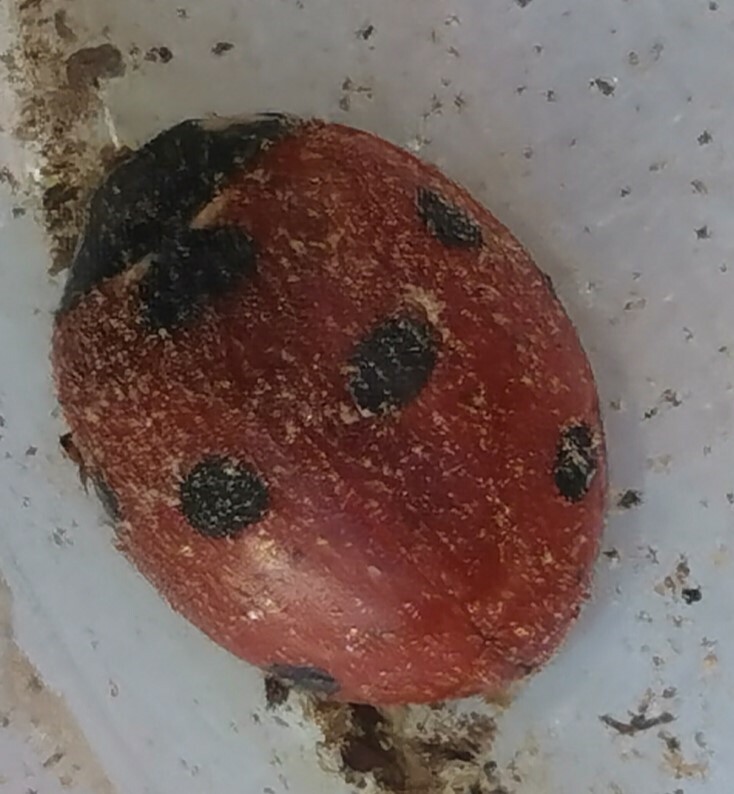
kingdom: Animalia
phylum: Arthropoda
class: Insecta
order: Coleoptera
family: Coccinellidae
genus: Coccinella
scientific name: Coccinella septempunctata
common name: Sevenspotted lady beetle
